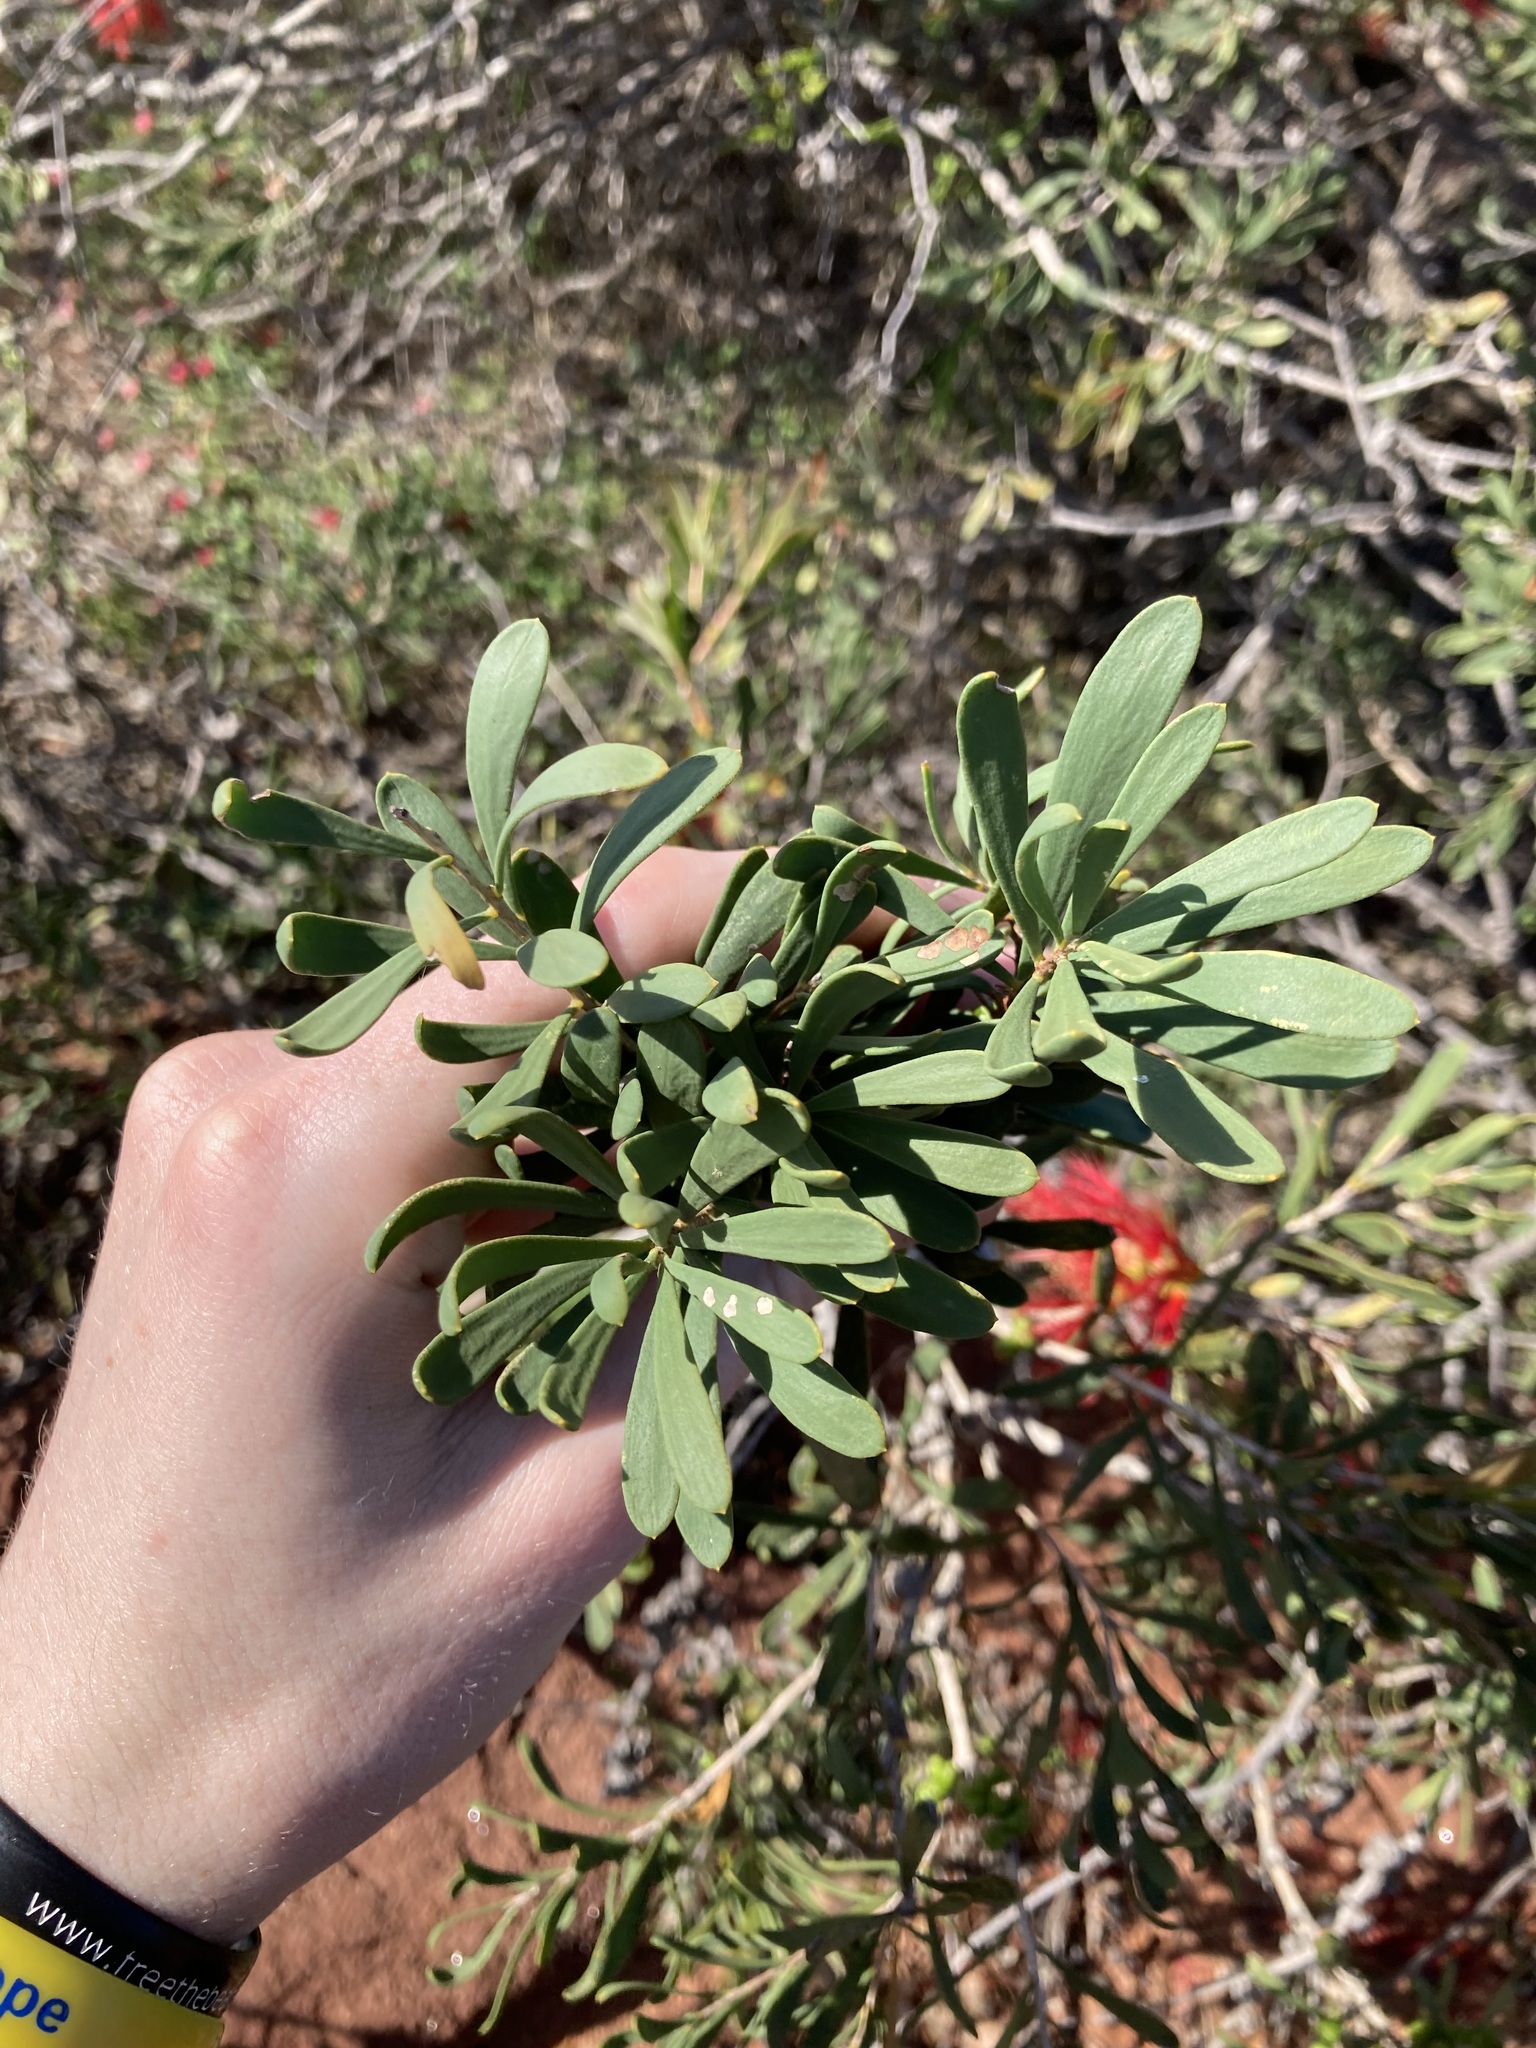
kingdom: Plantae
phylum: Tracheophyta
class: Magnoliopsida
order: Myrtales
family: Myrtaceae
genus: Melaleuca
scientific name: Melaleuca quadrifida
